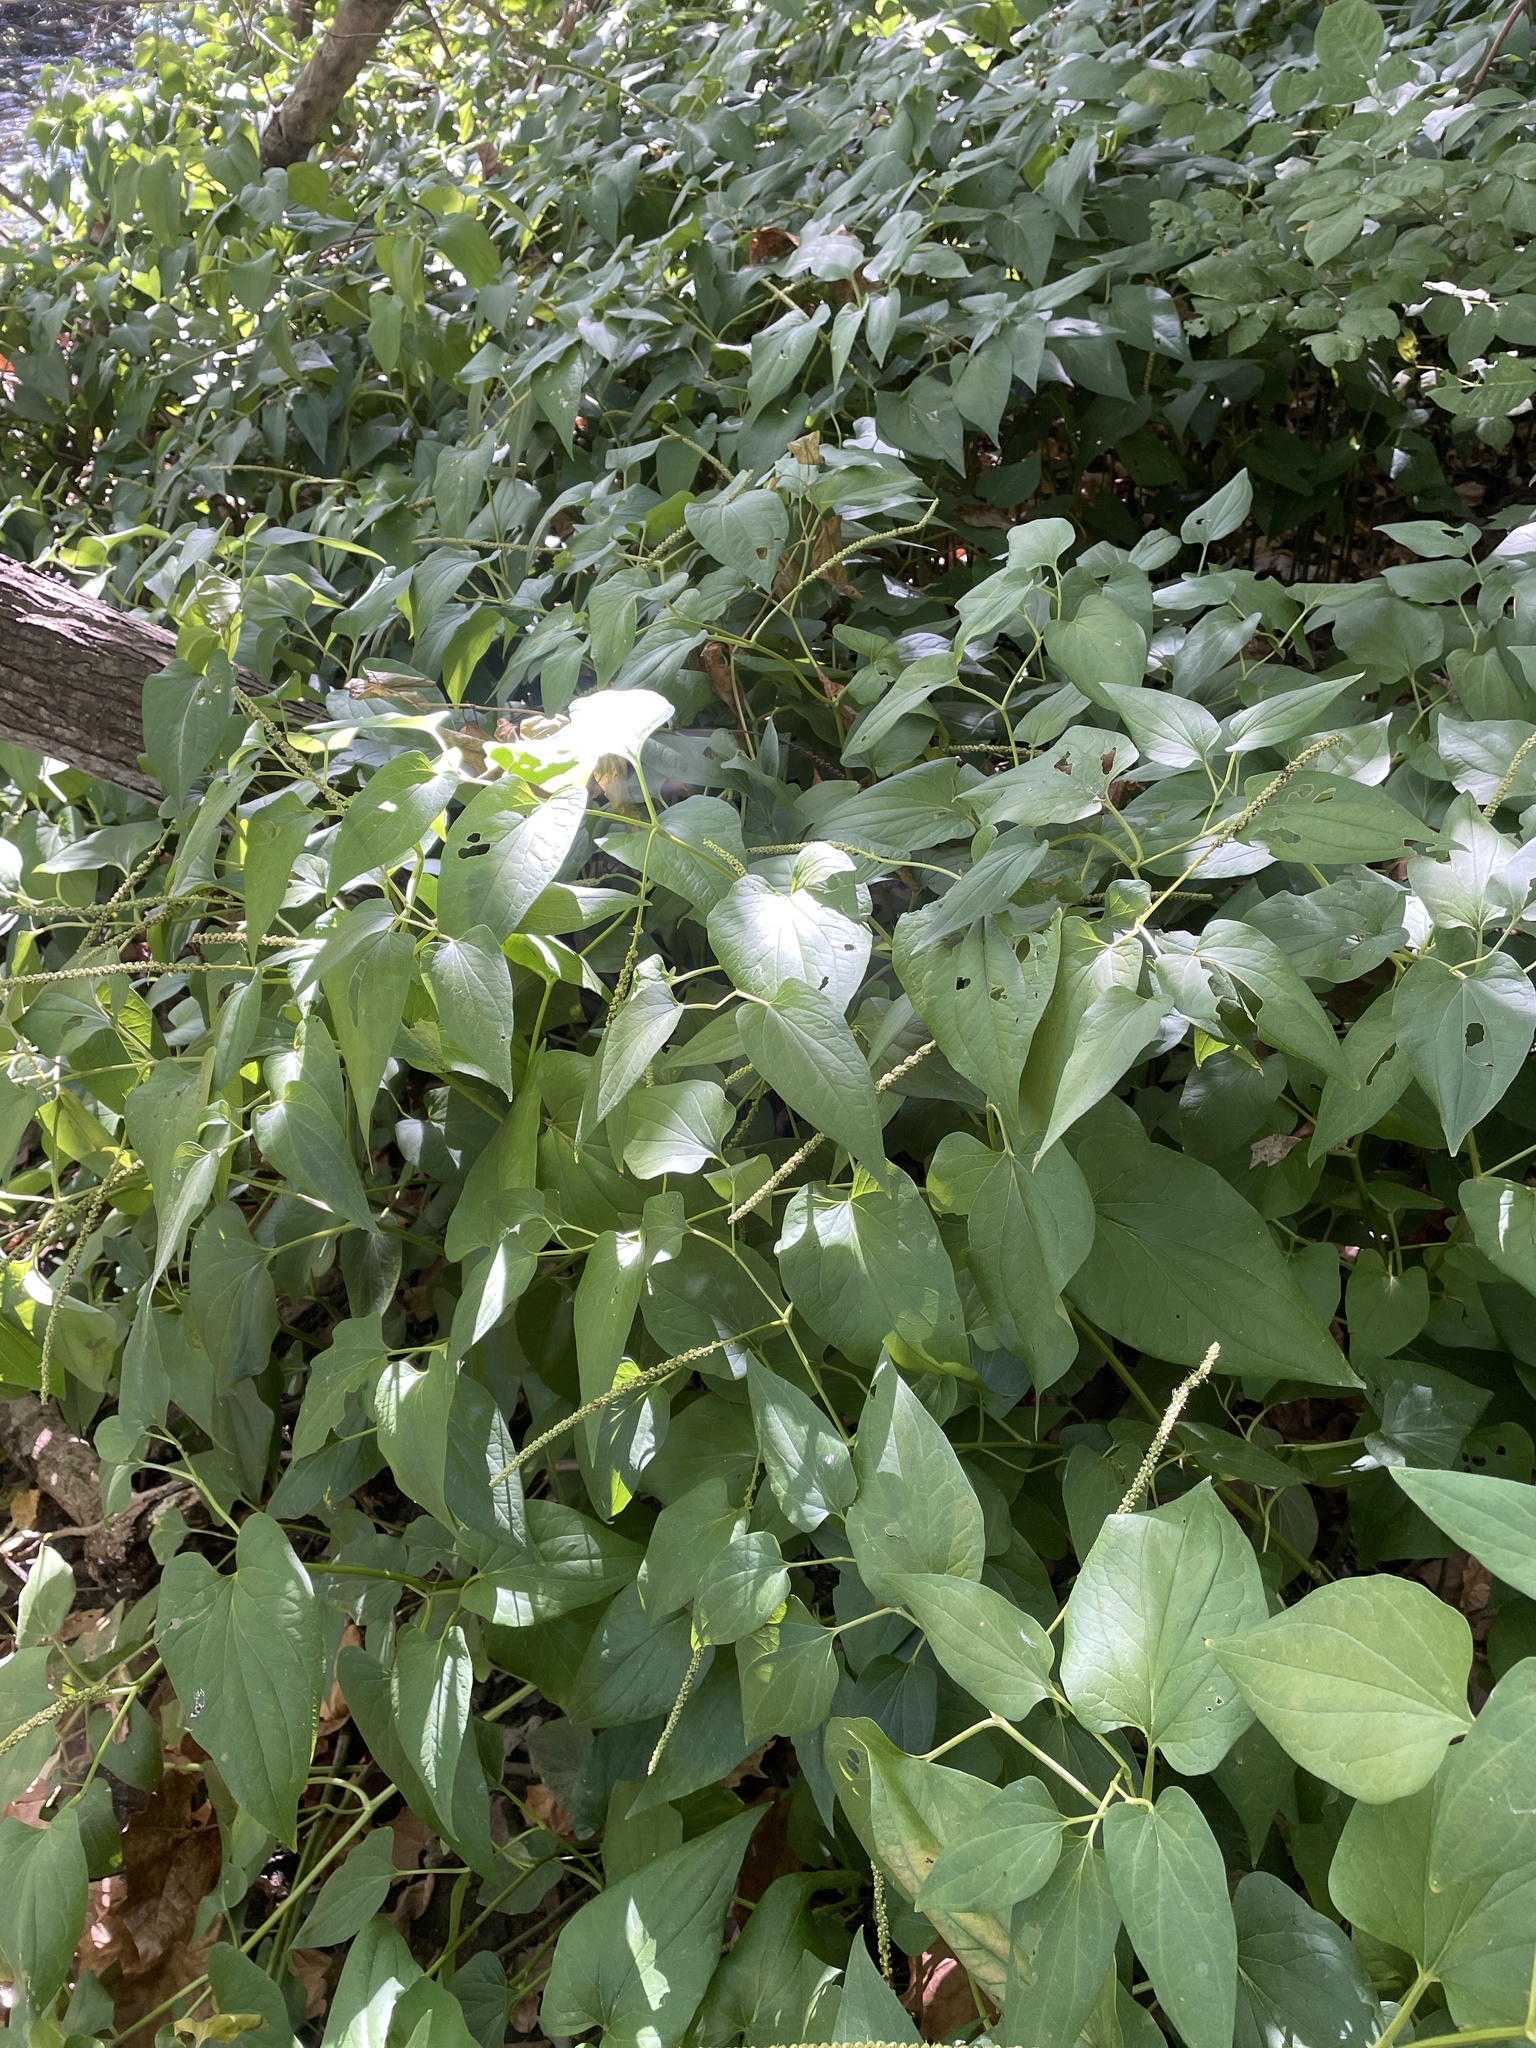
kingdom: Plantae
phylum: Tracheophyta
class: Magnoliopsida
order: Piperales
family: Saururaceae
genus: Saururus
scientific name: Saururus cernuus
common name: Lizard's-tail
